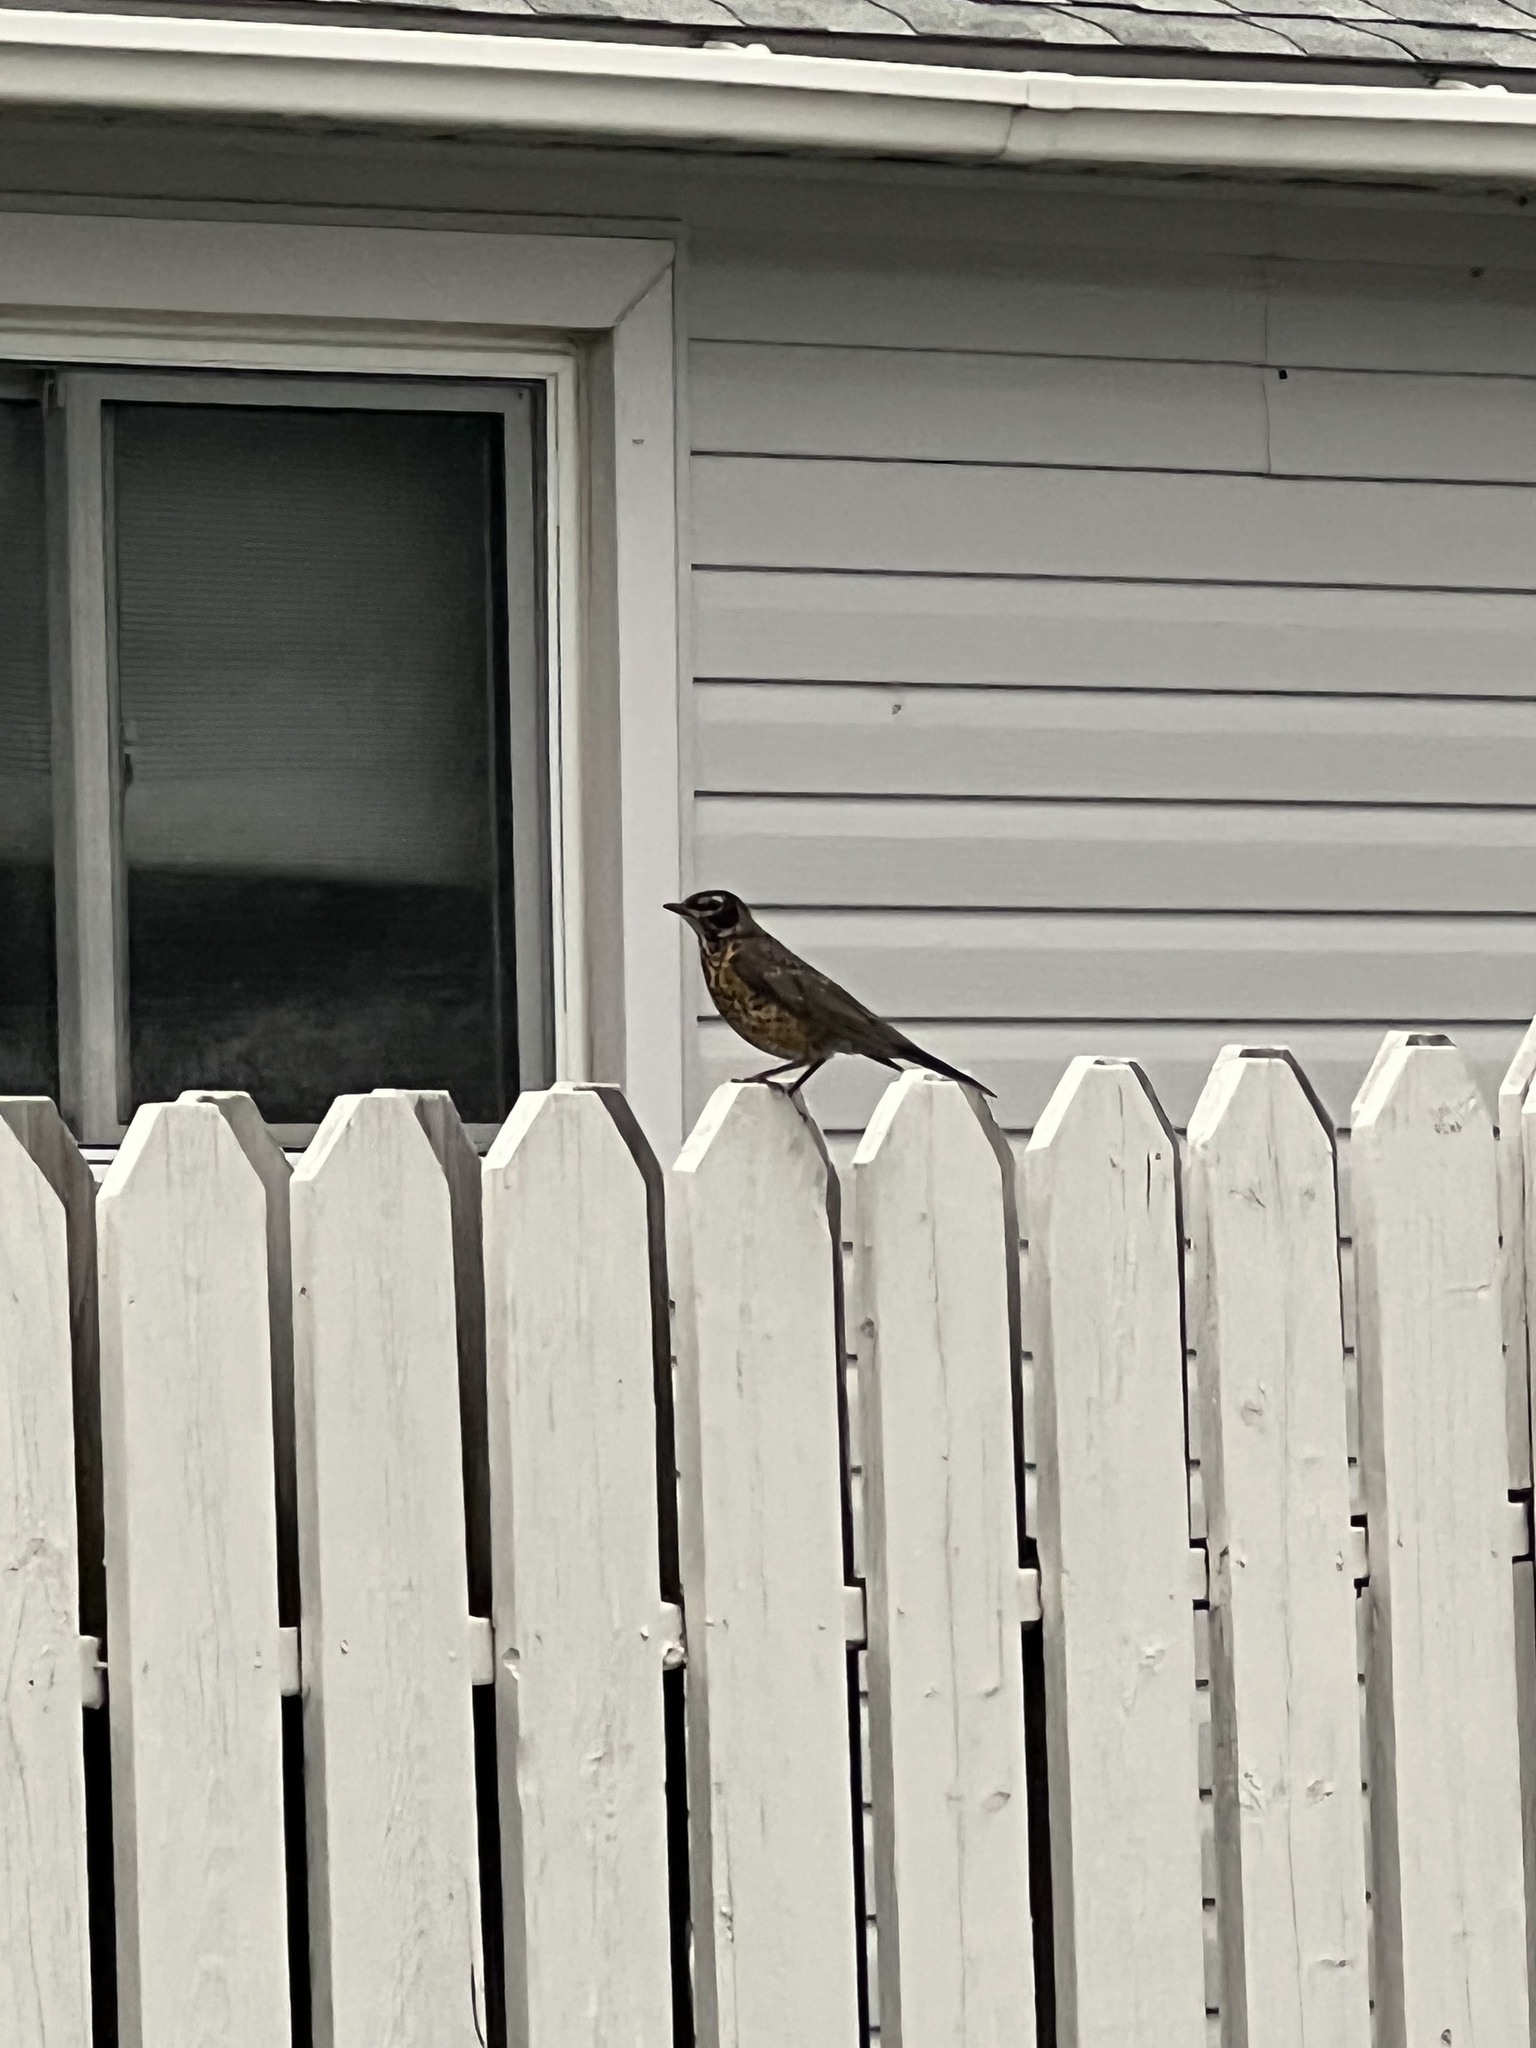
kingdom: Animalia
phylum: Chordata
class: Aves
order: Passeriformes
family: Turdidae
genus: Turdus
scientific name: Turdus migratorius
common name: American robin
